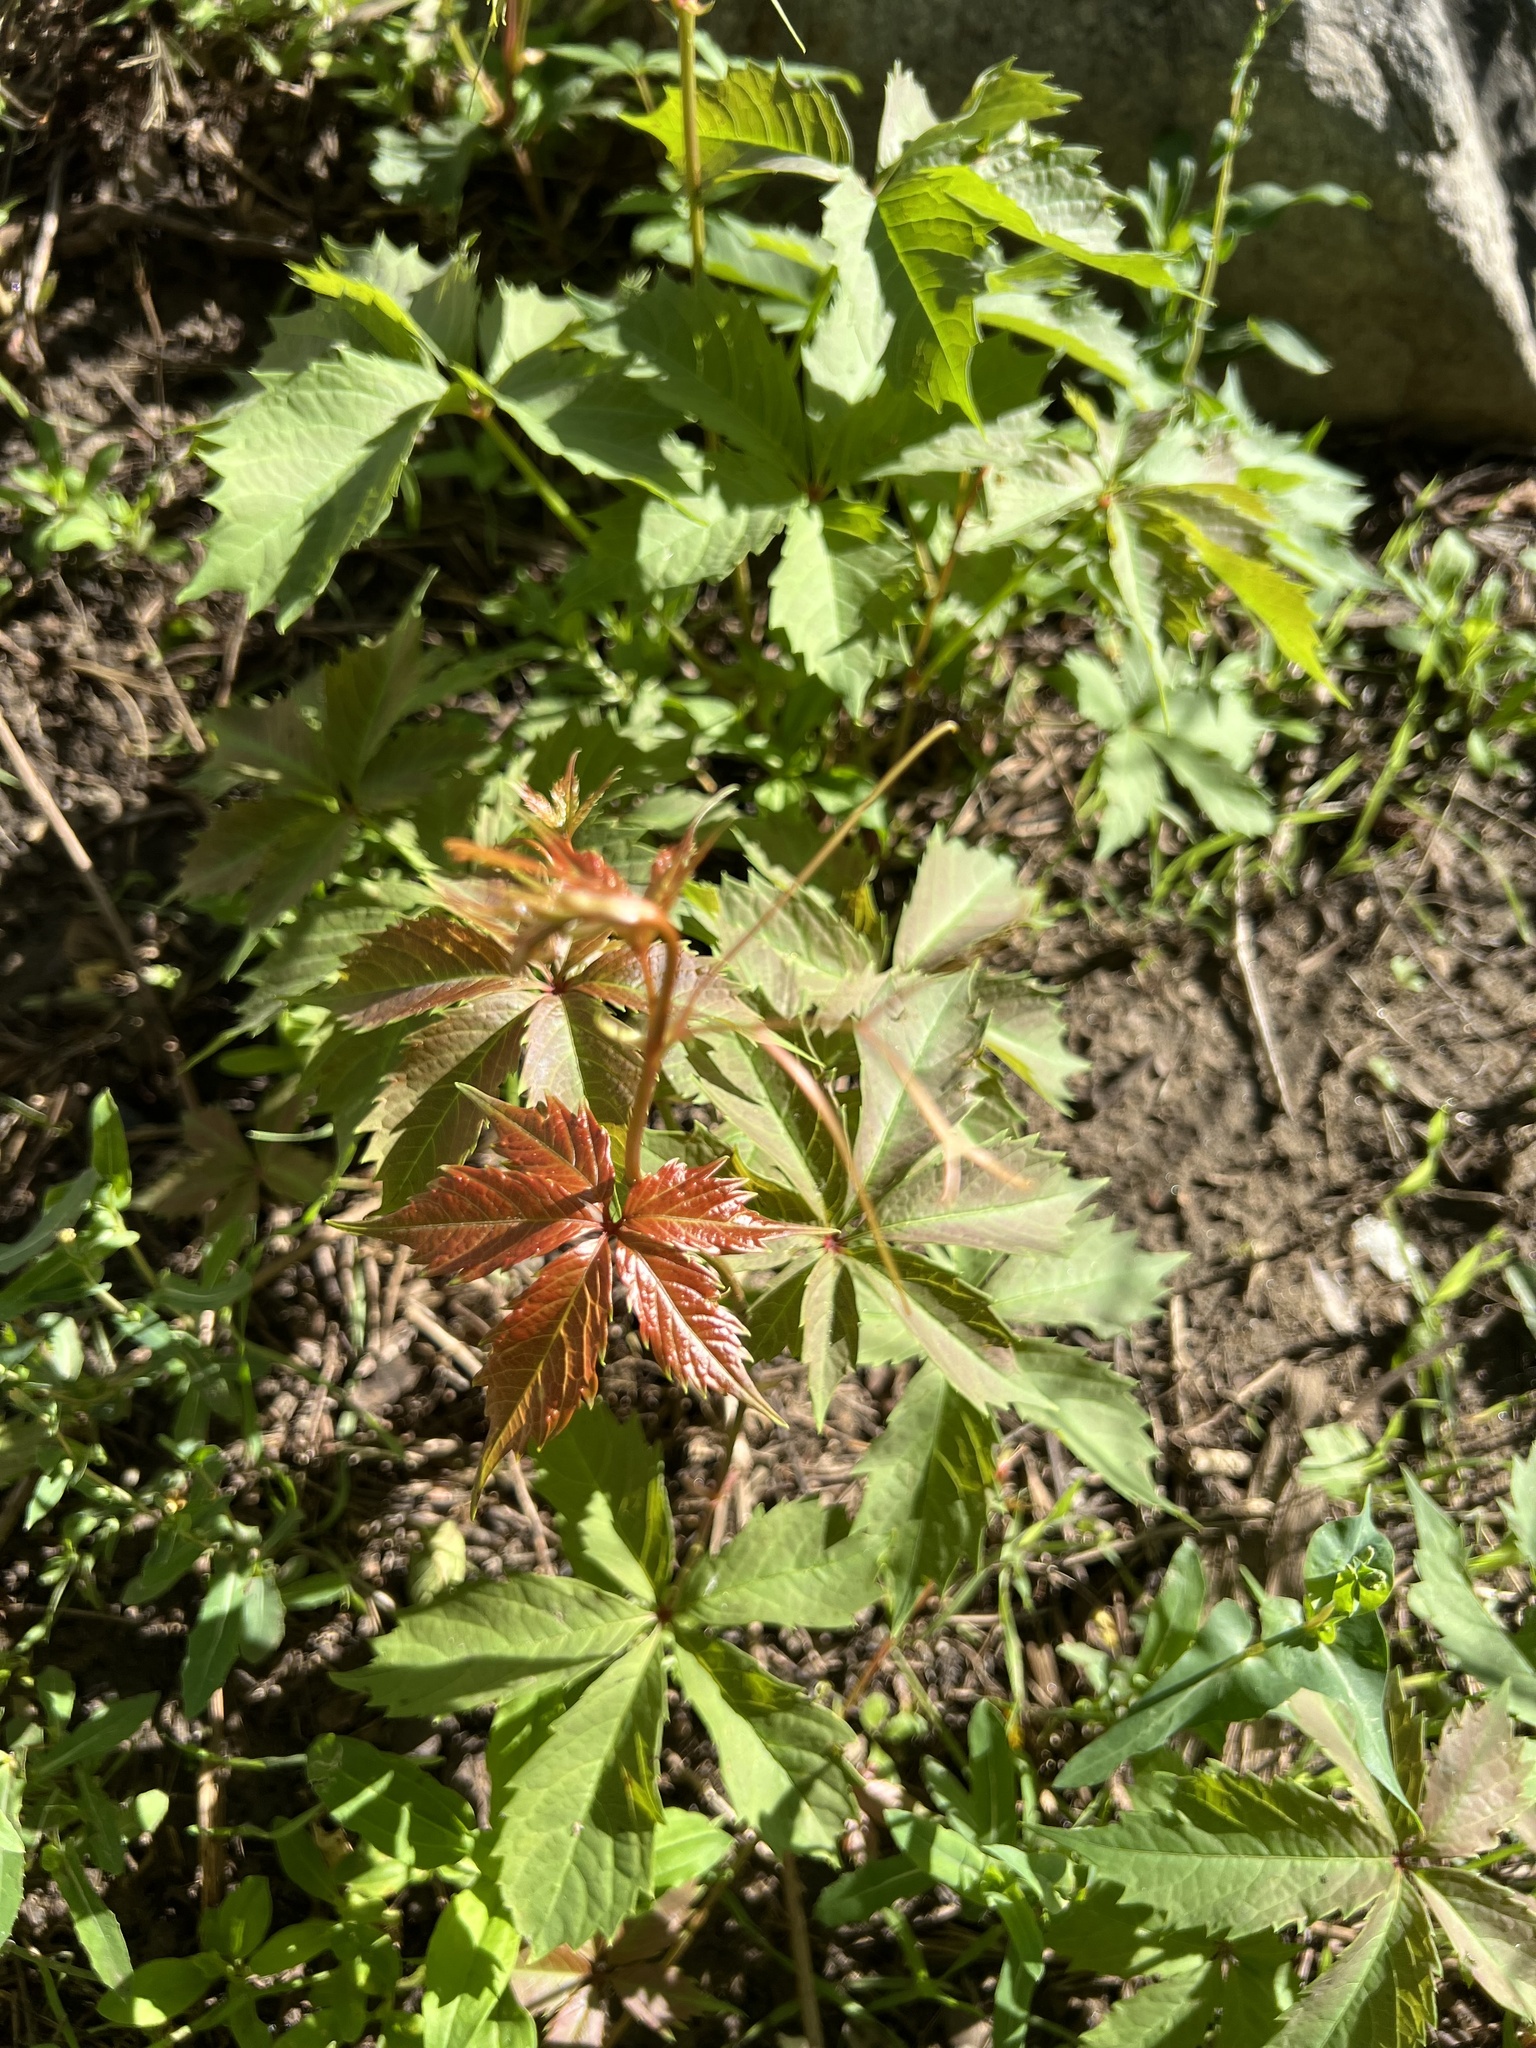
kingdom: Plantae
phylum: Tracheophyta
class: Magnoliopsida
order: Vitales
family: Vitaceae
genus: Parthenocissus
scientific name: Parthenocissus quinquefolia
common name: Virginia-creeper
